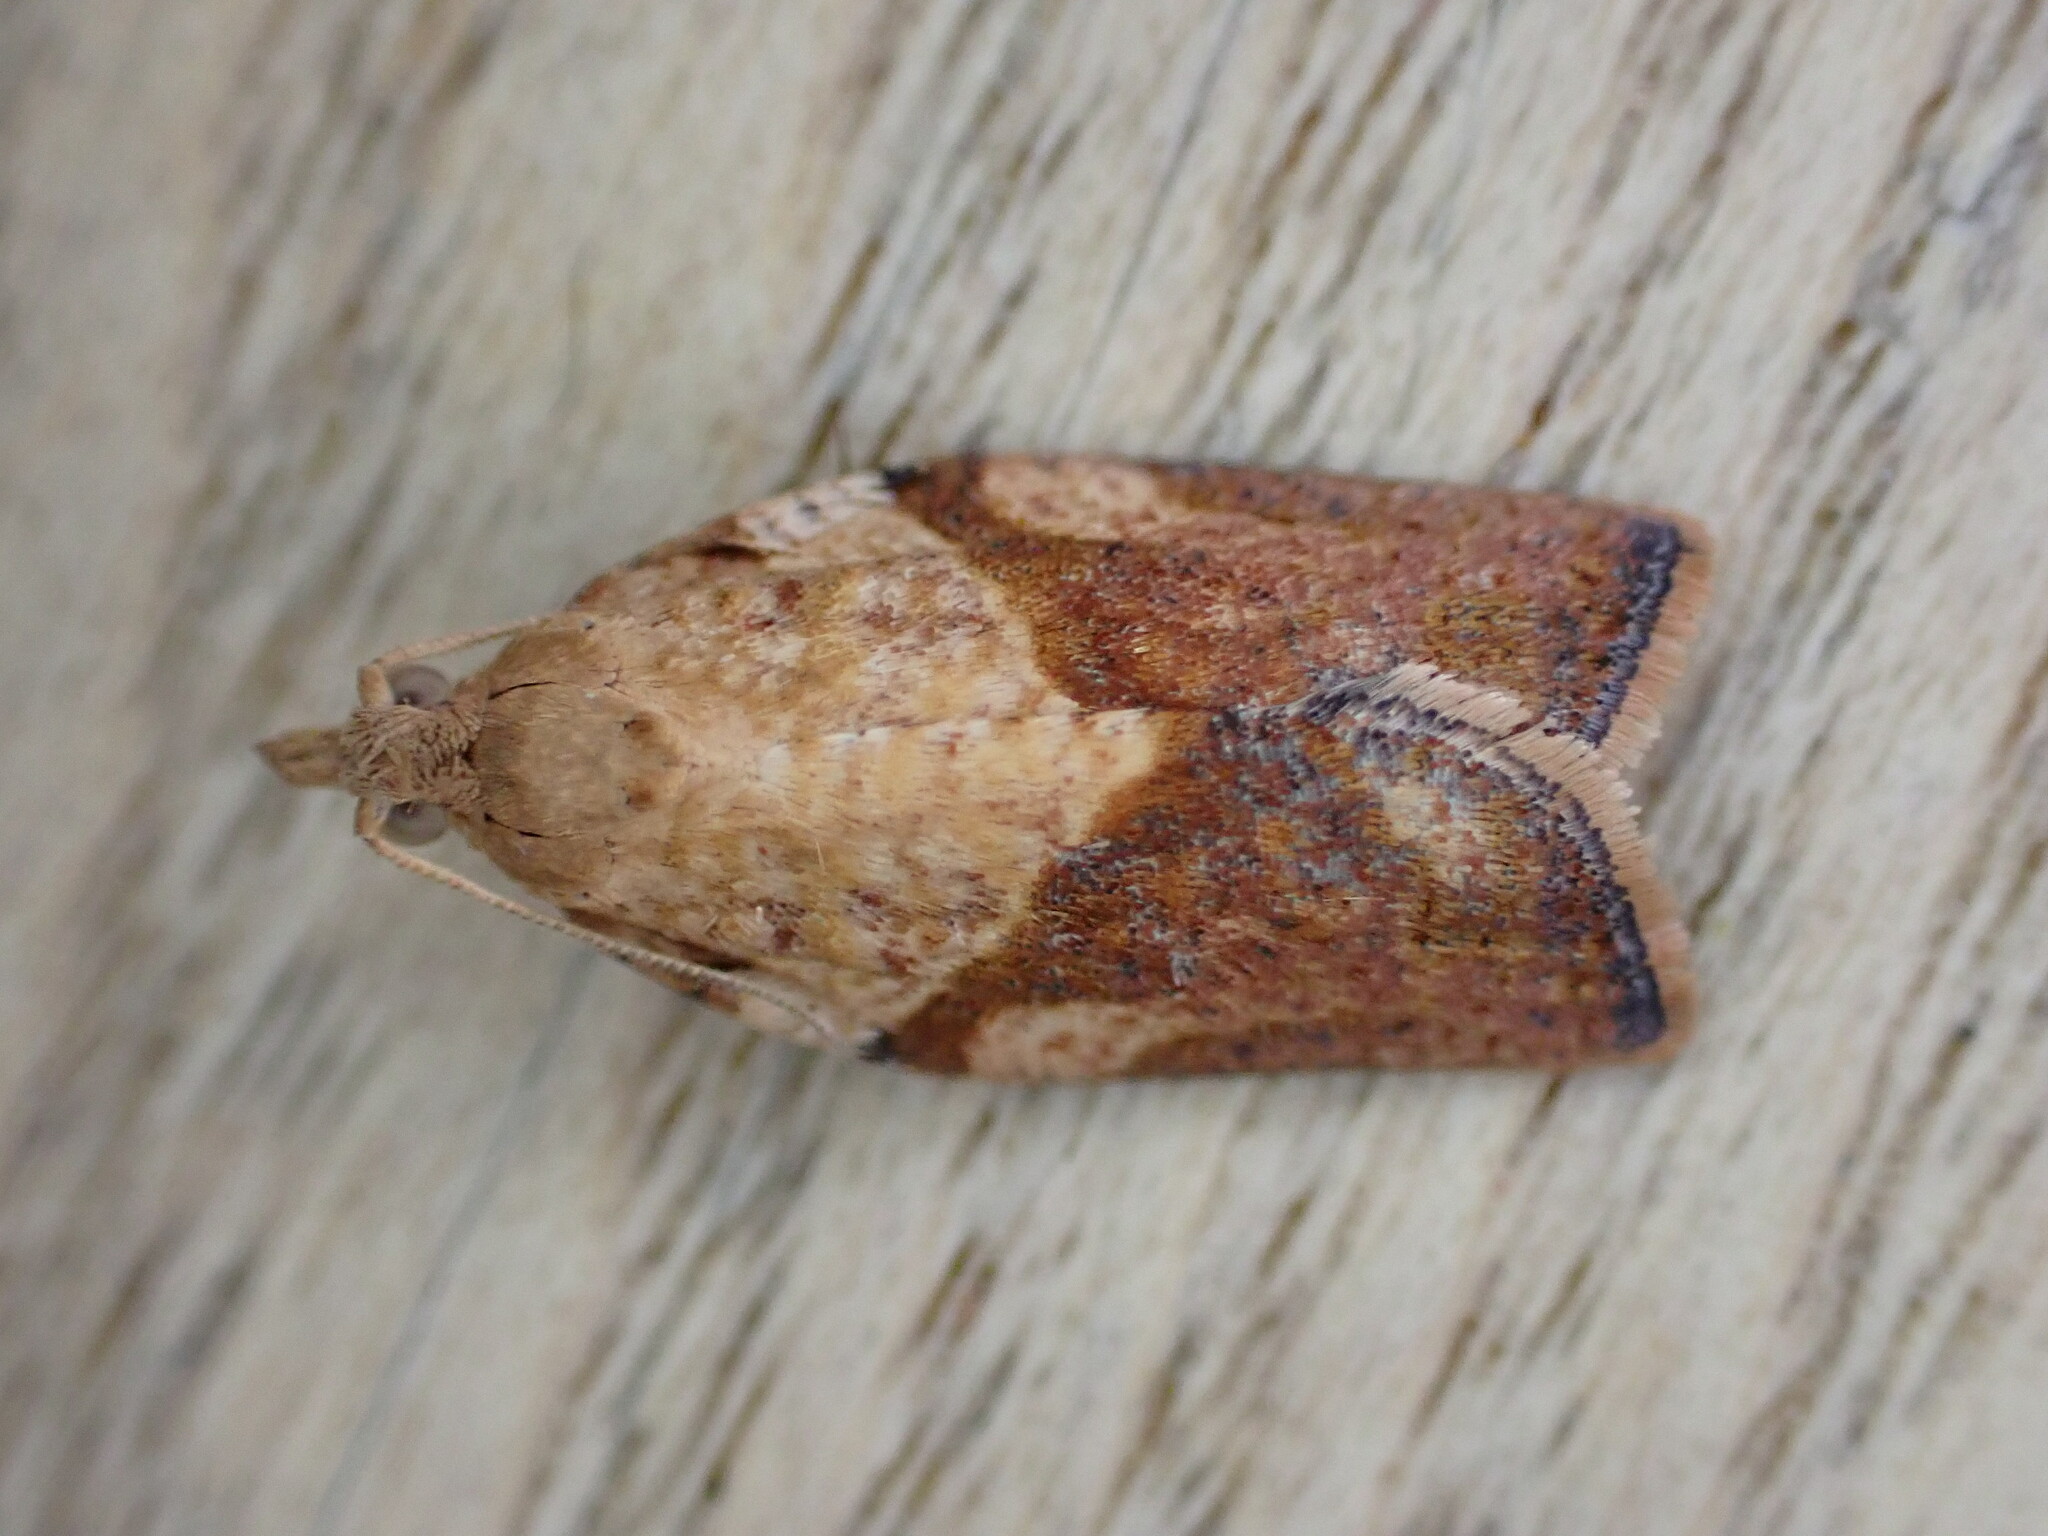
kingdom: Animalia
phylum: Arthropoda
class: Insecta
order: Lepidoptera
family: Tortricidae
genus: Epiphyas
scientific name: Epiphyas postvittana
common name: Light brown apple moth
